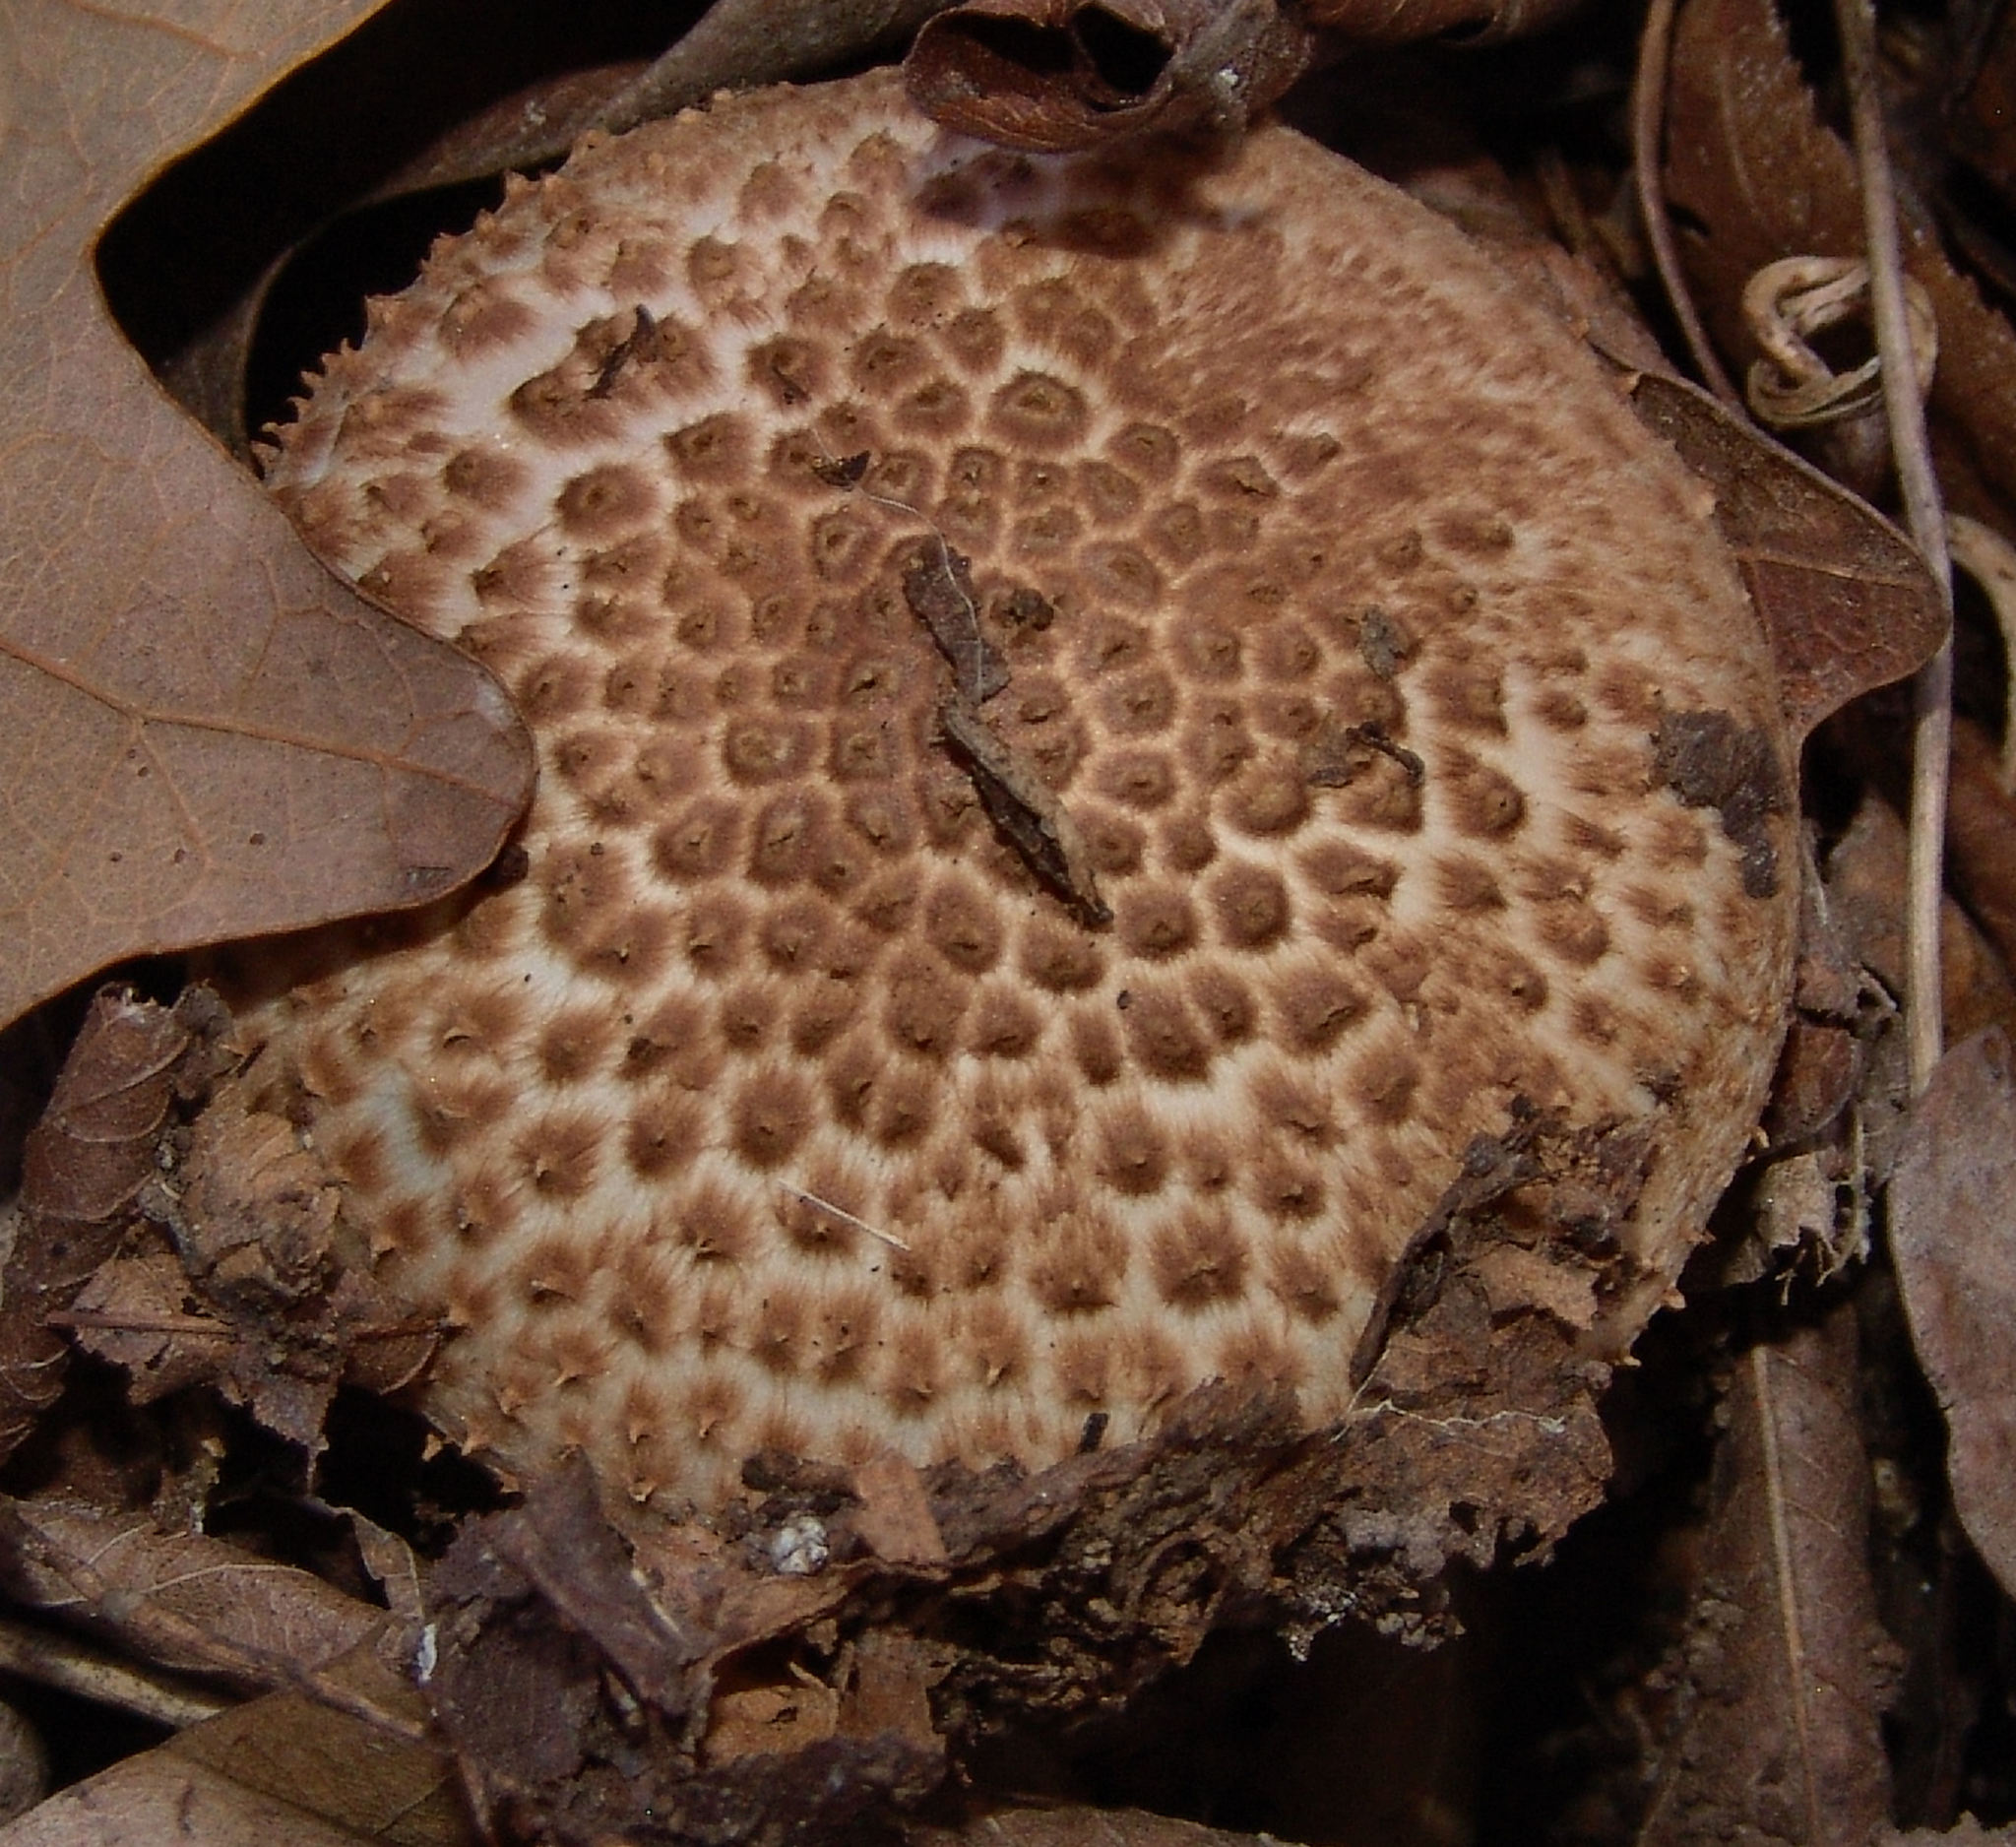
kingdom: Fungi
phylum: Basidiomycota
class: Agaricomycetes
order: Agaricales
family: Agaricaceae
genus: Echinoderma
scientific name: Echinoderma asperum
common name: Freckled dapperling
